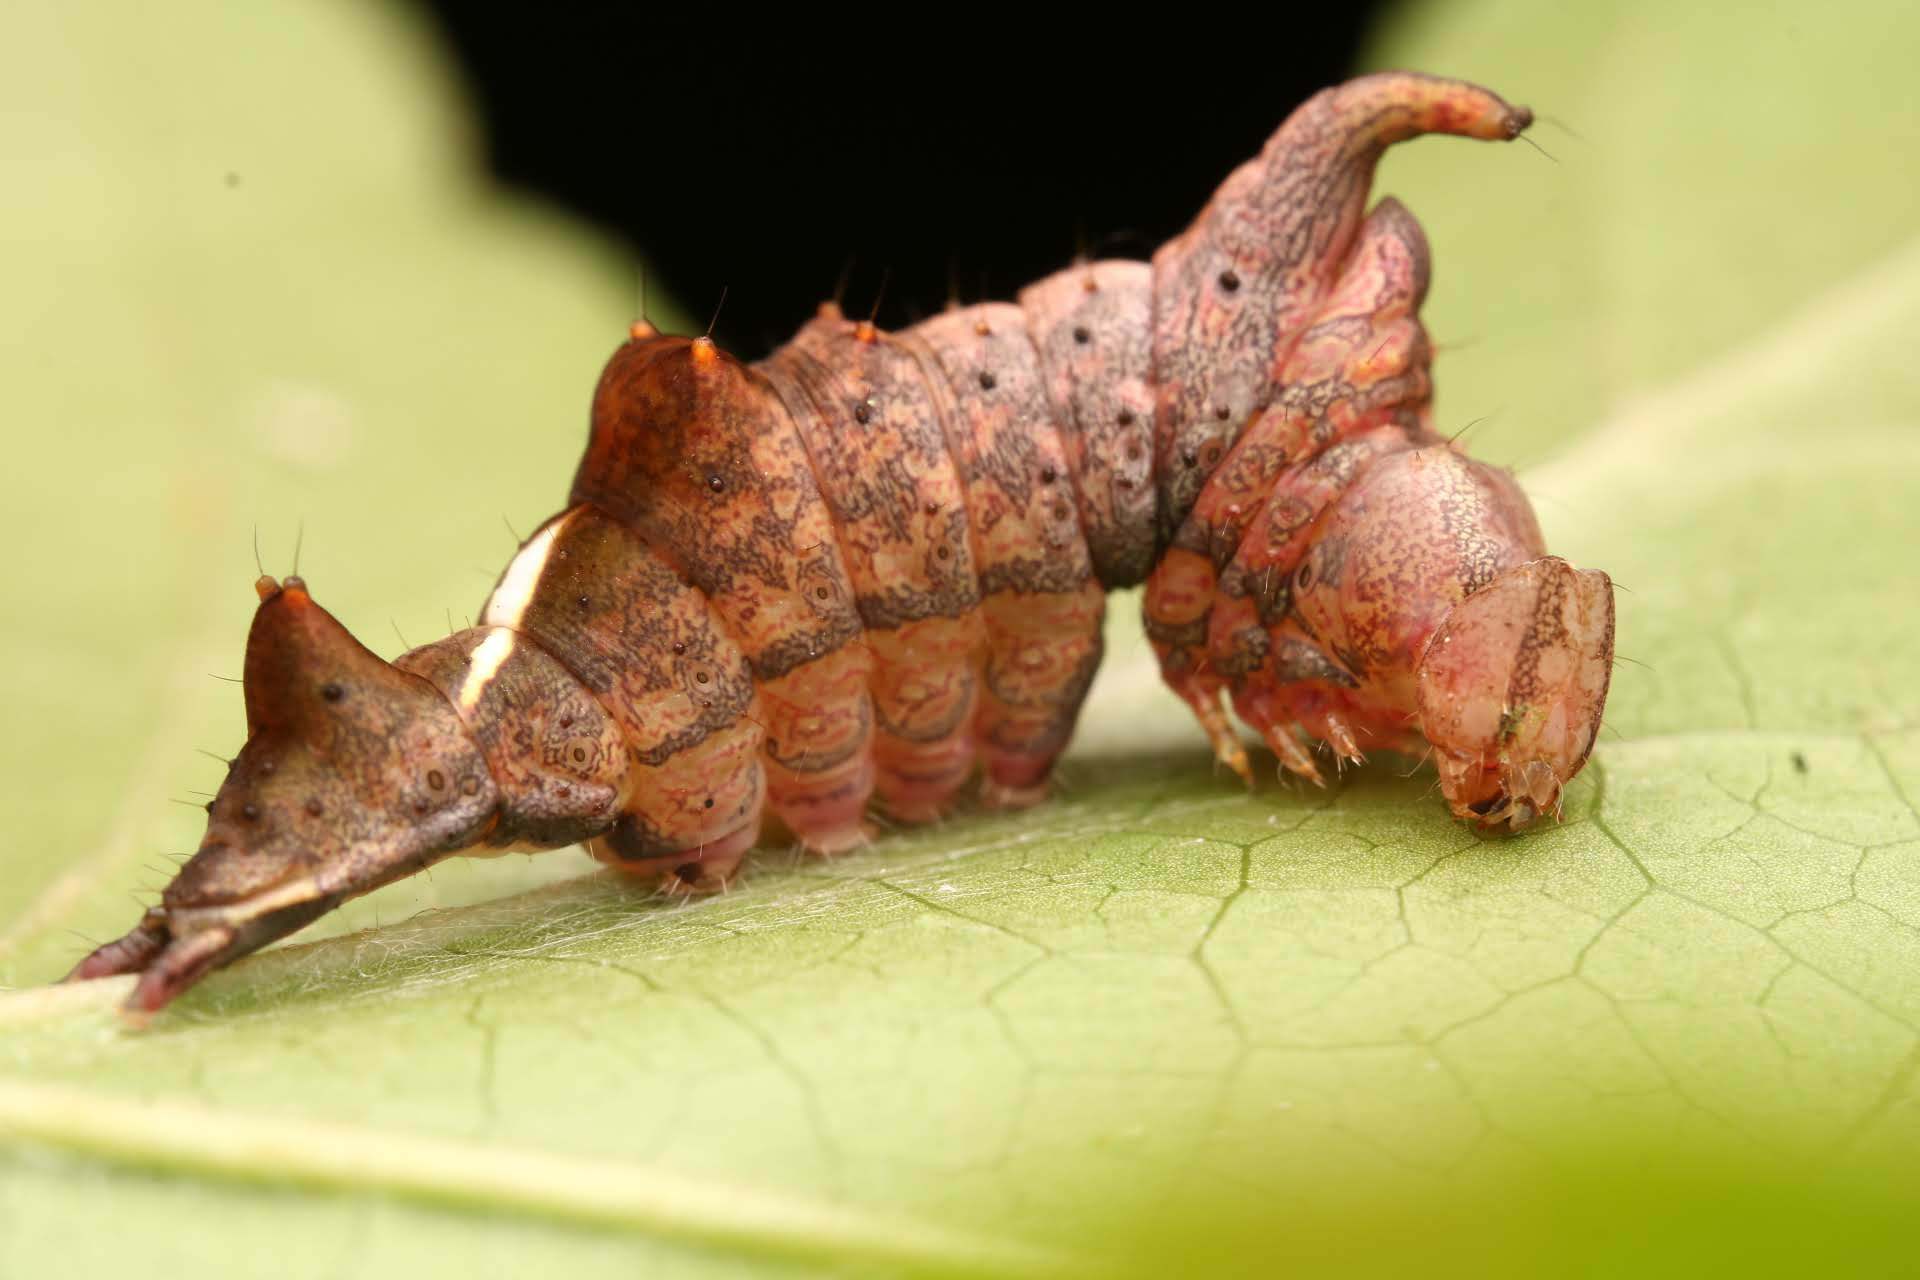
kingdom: Animalia
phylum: Arthropoda
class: Insecta
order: Lepidoptera
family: Notodontidae
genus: Schizura
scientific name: Schizura
